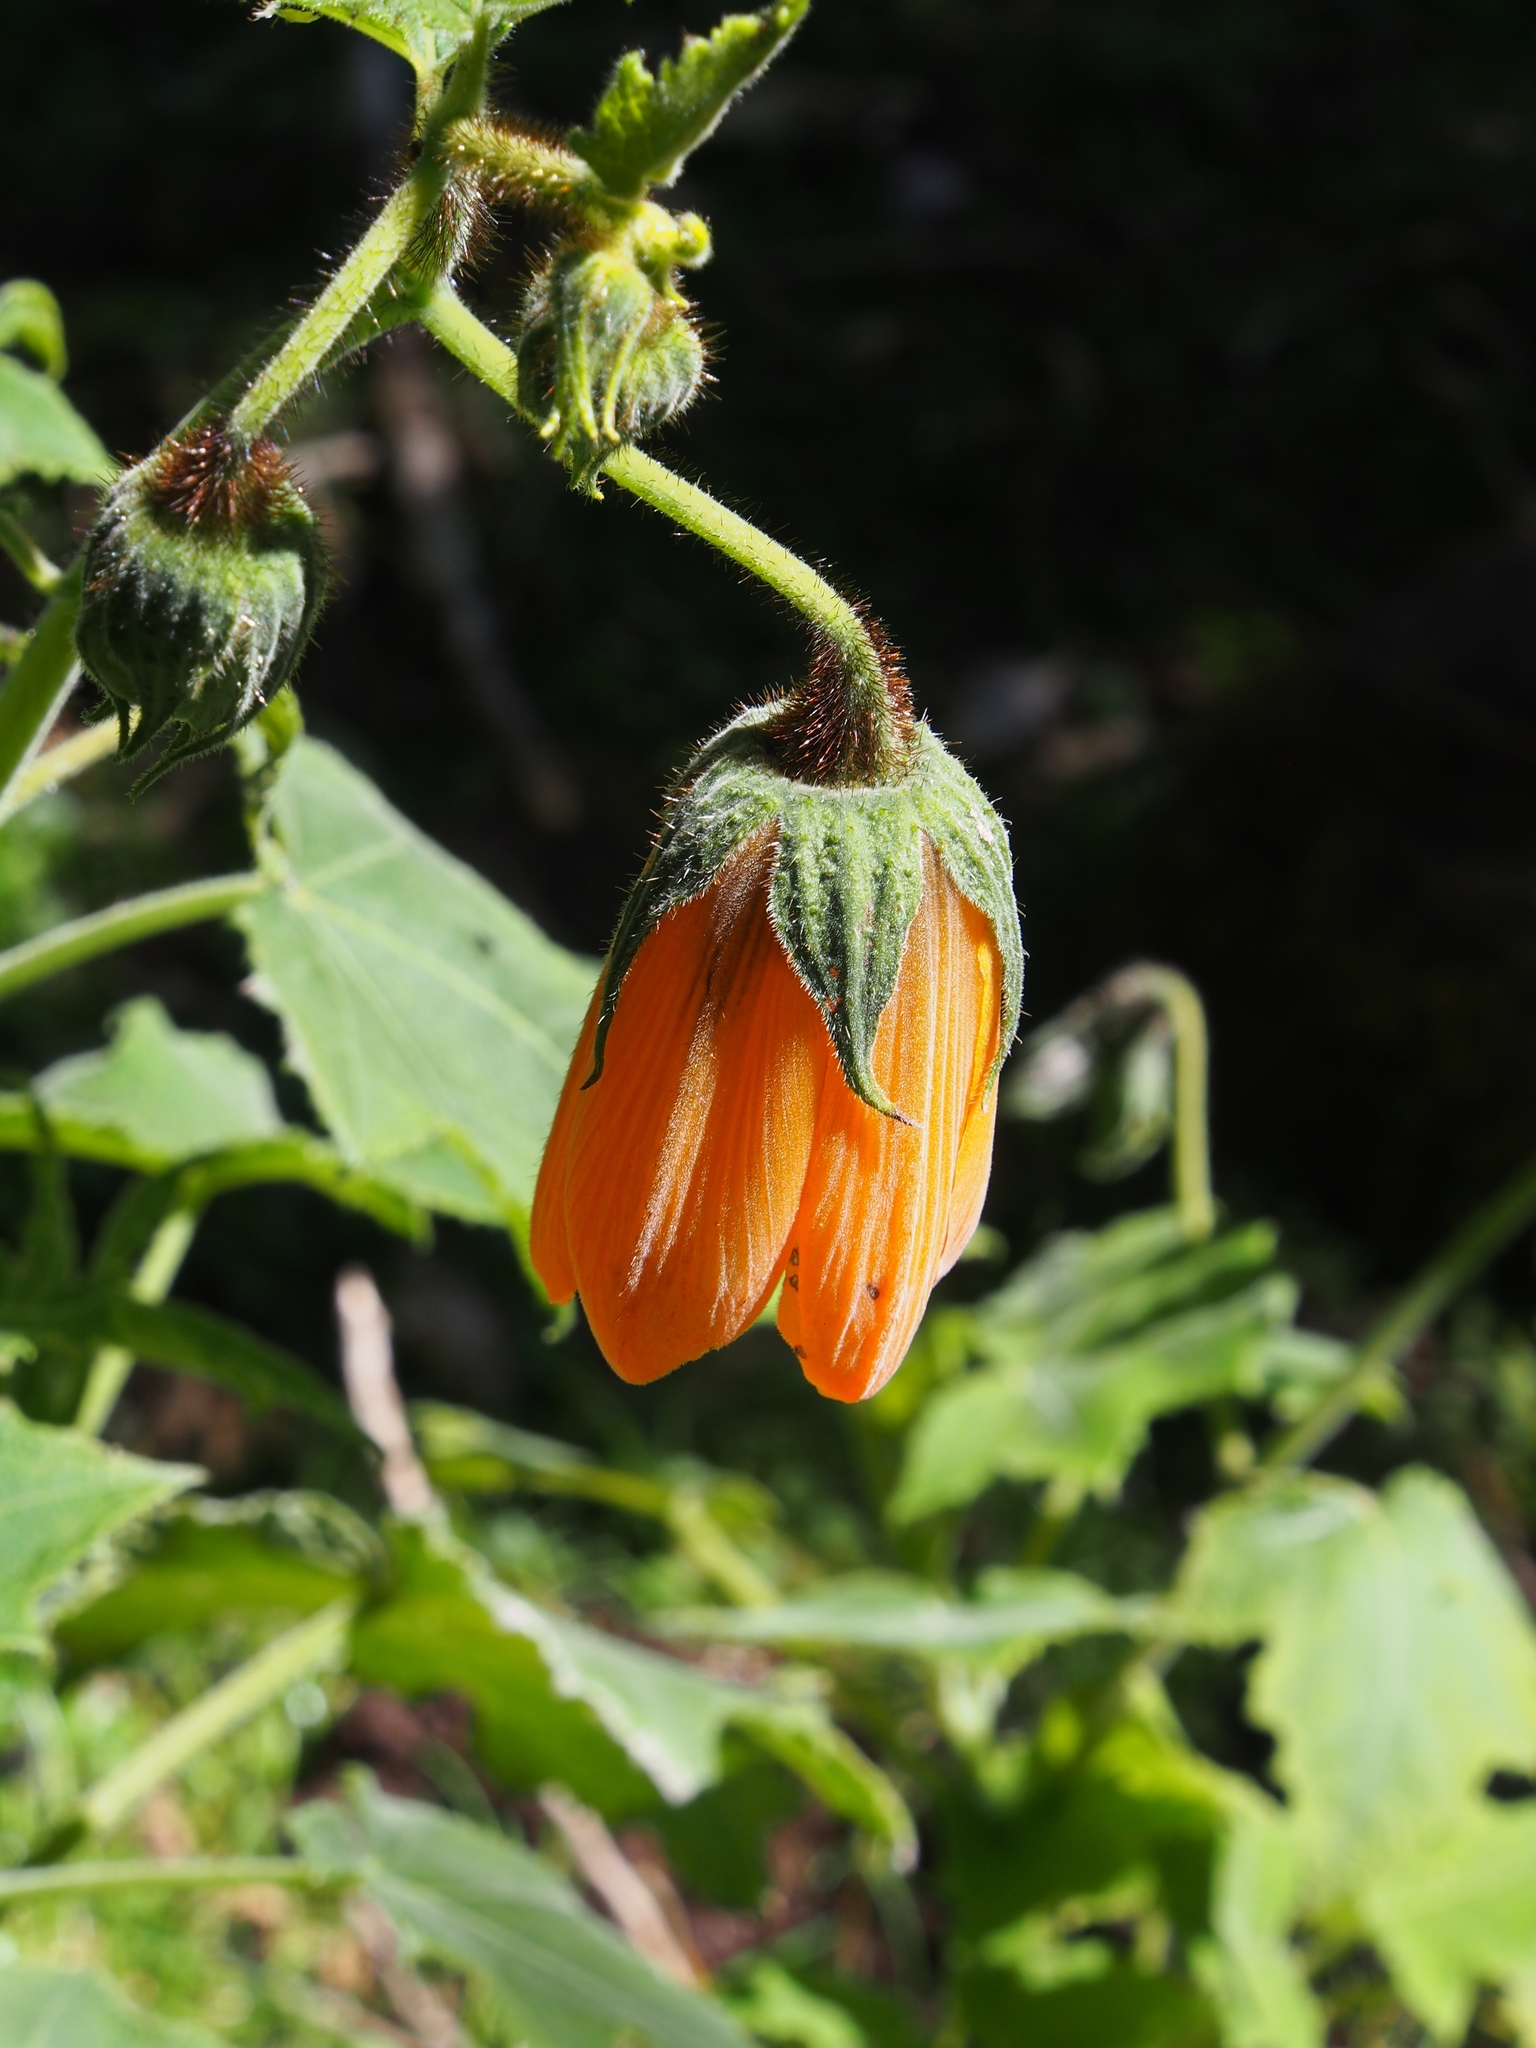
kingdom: Plantae
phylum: Tracheophyta
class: Magnoliopsida
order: Cornales
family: Loasaceae
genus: Nasa
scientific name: Nasa speciosa
